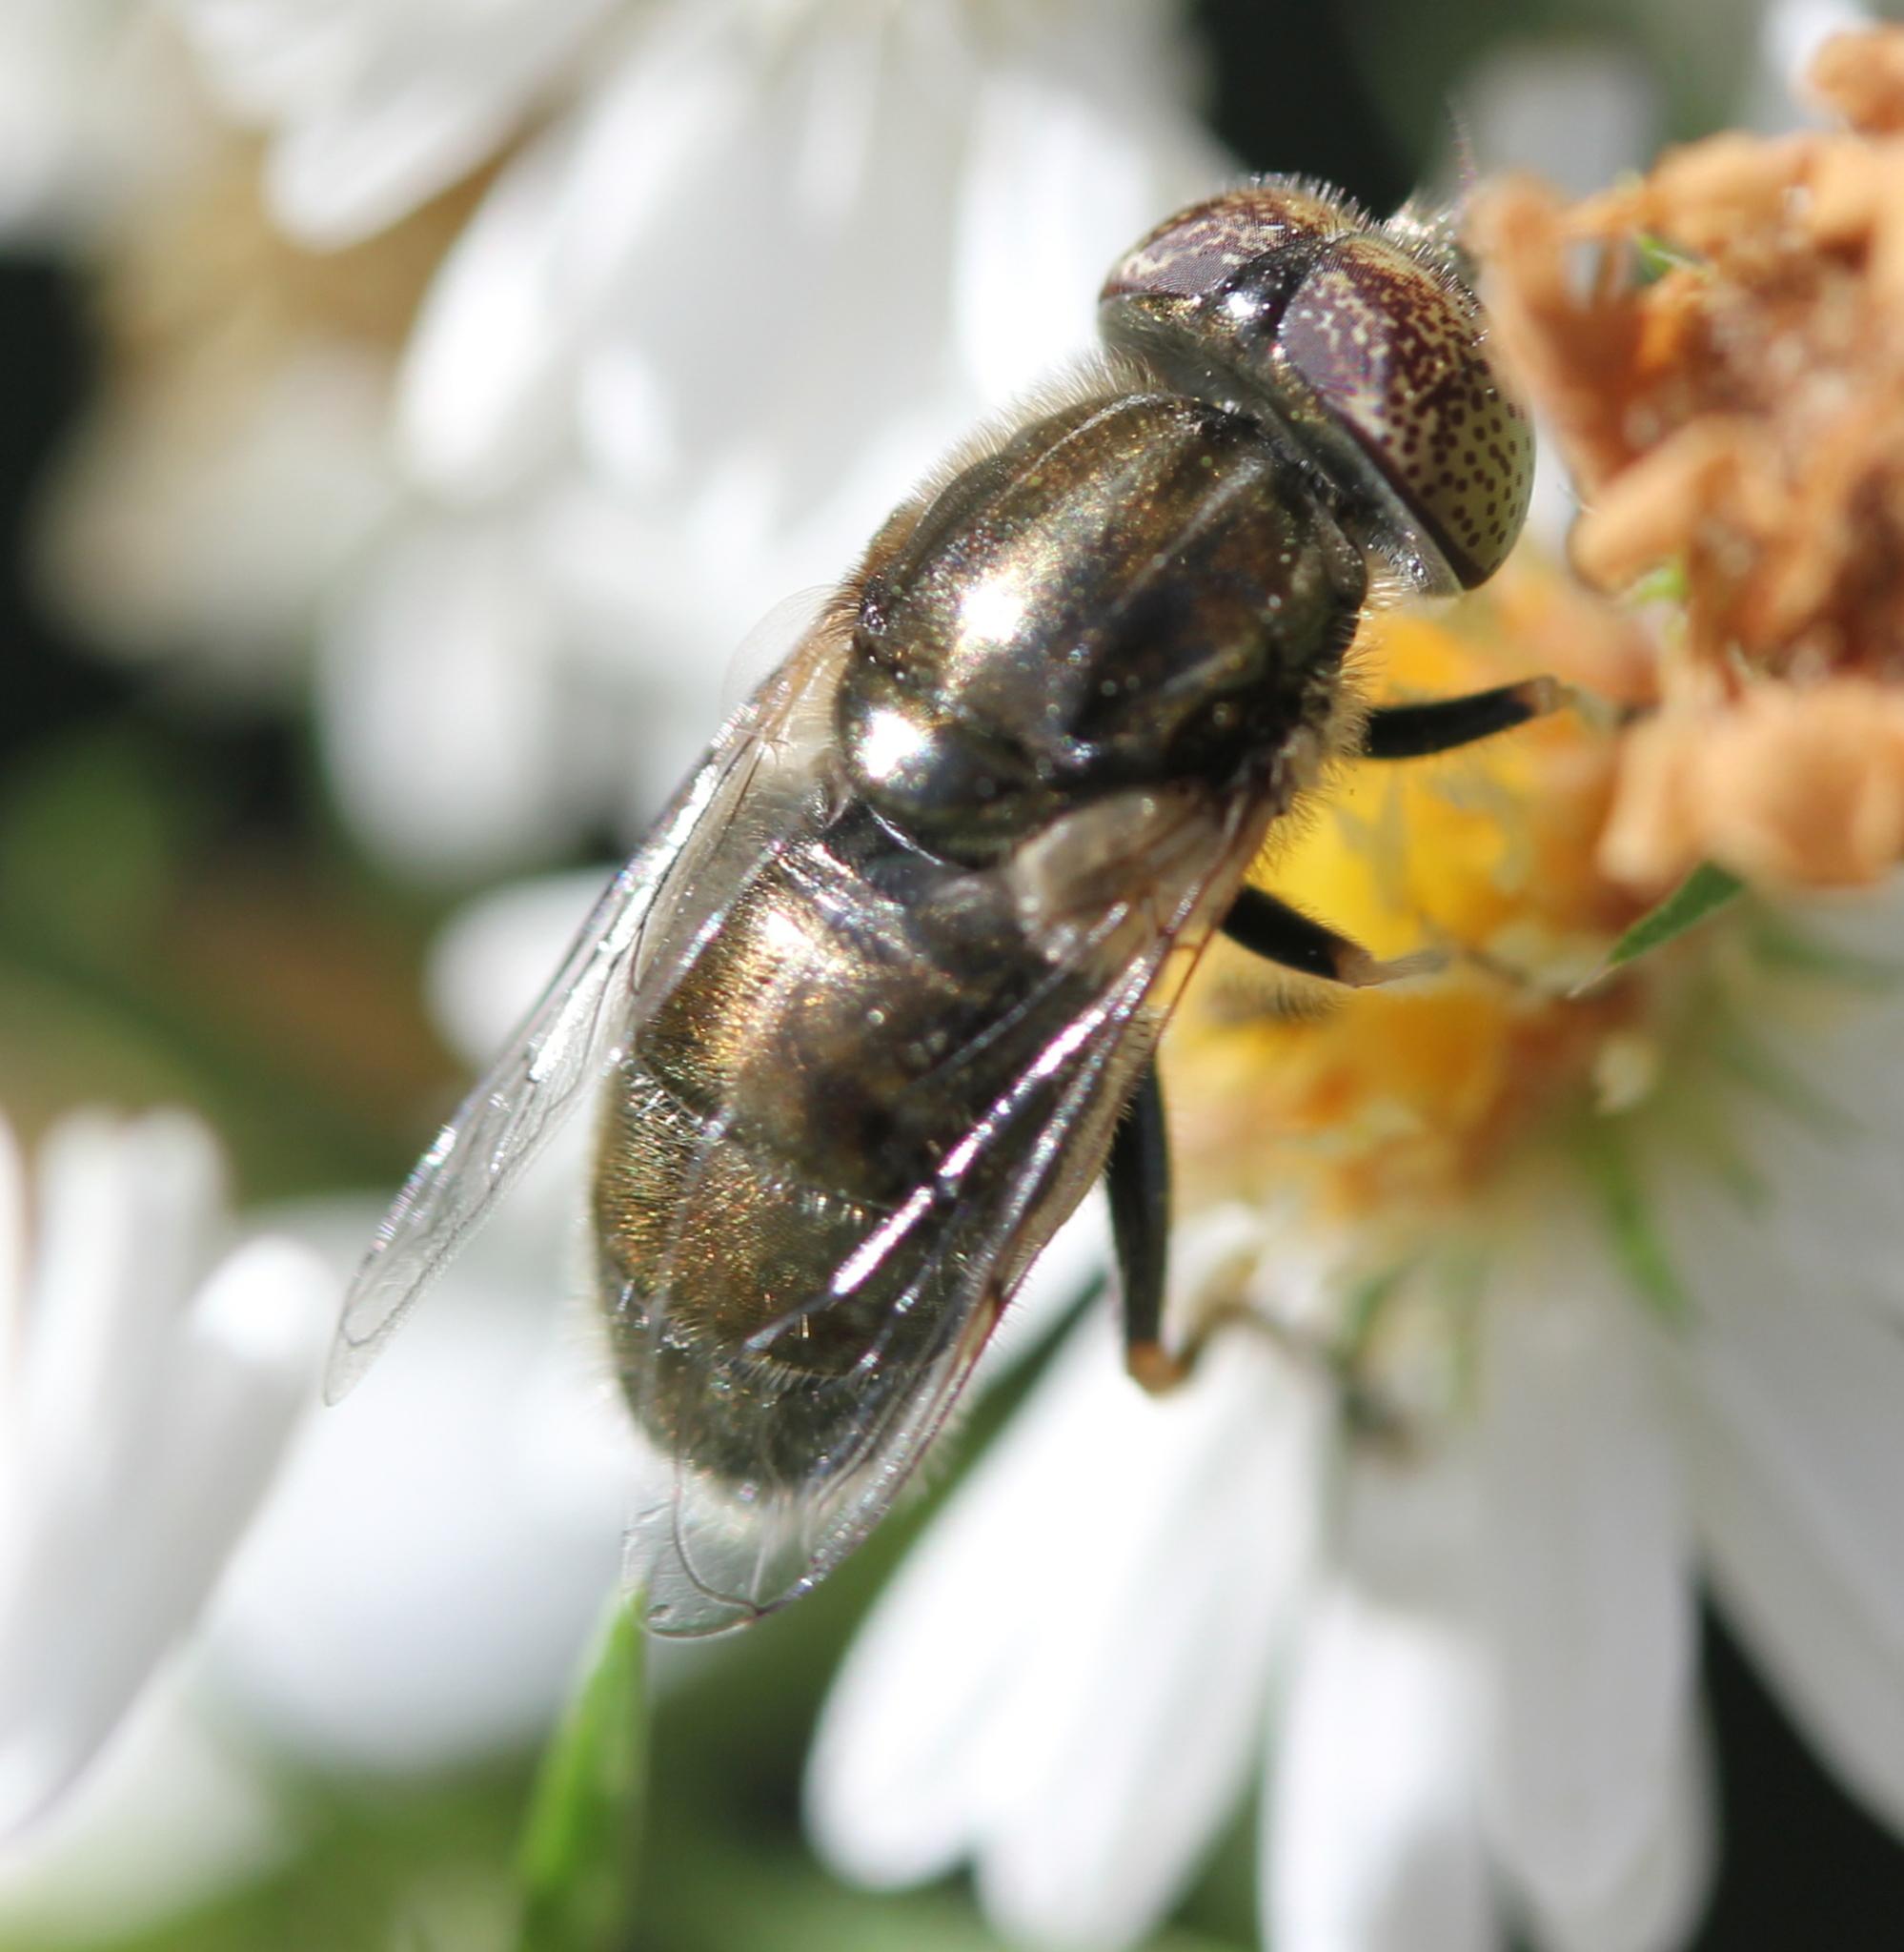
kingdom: Animalia
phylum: Arthropoda
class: Insecta
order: Diptera
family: Syrphidae
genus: Eristalinus
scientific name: Eristalinus aeneus
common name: Syrphid fly
